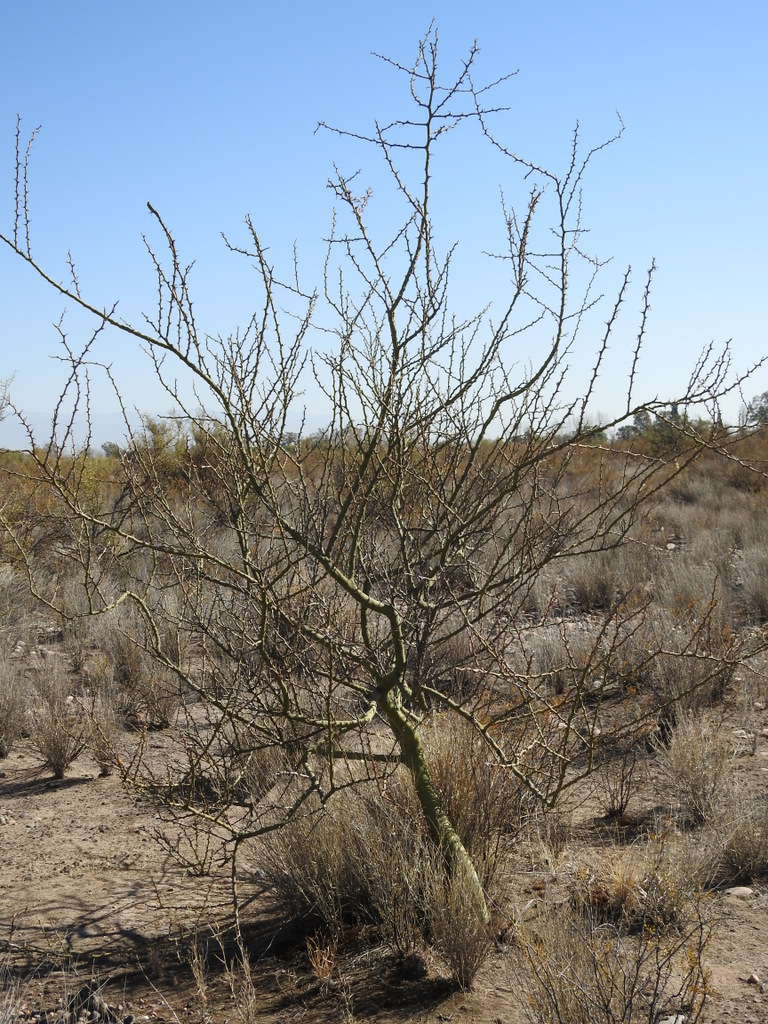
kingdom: Plantae
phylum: Tracheophyta
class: Magnoliopsida
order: Fabales
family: Fabaceae
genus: Parkinsonia
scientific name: Parkinsonia praecox
